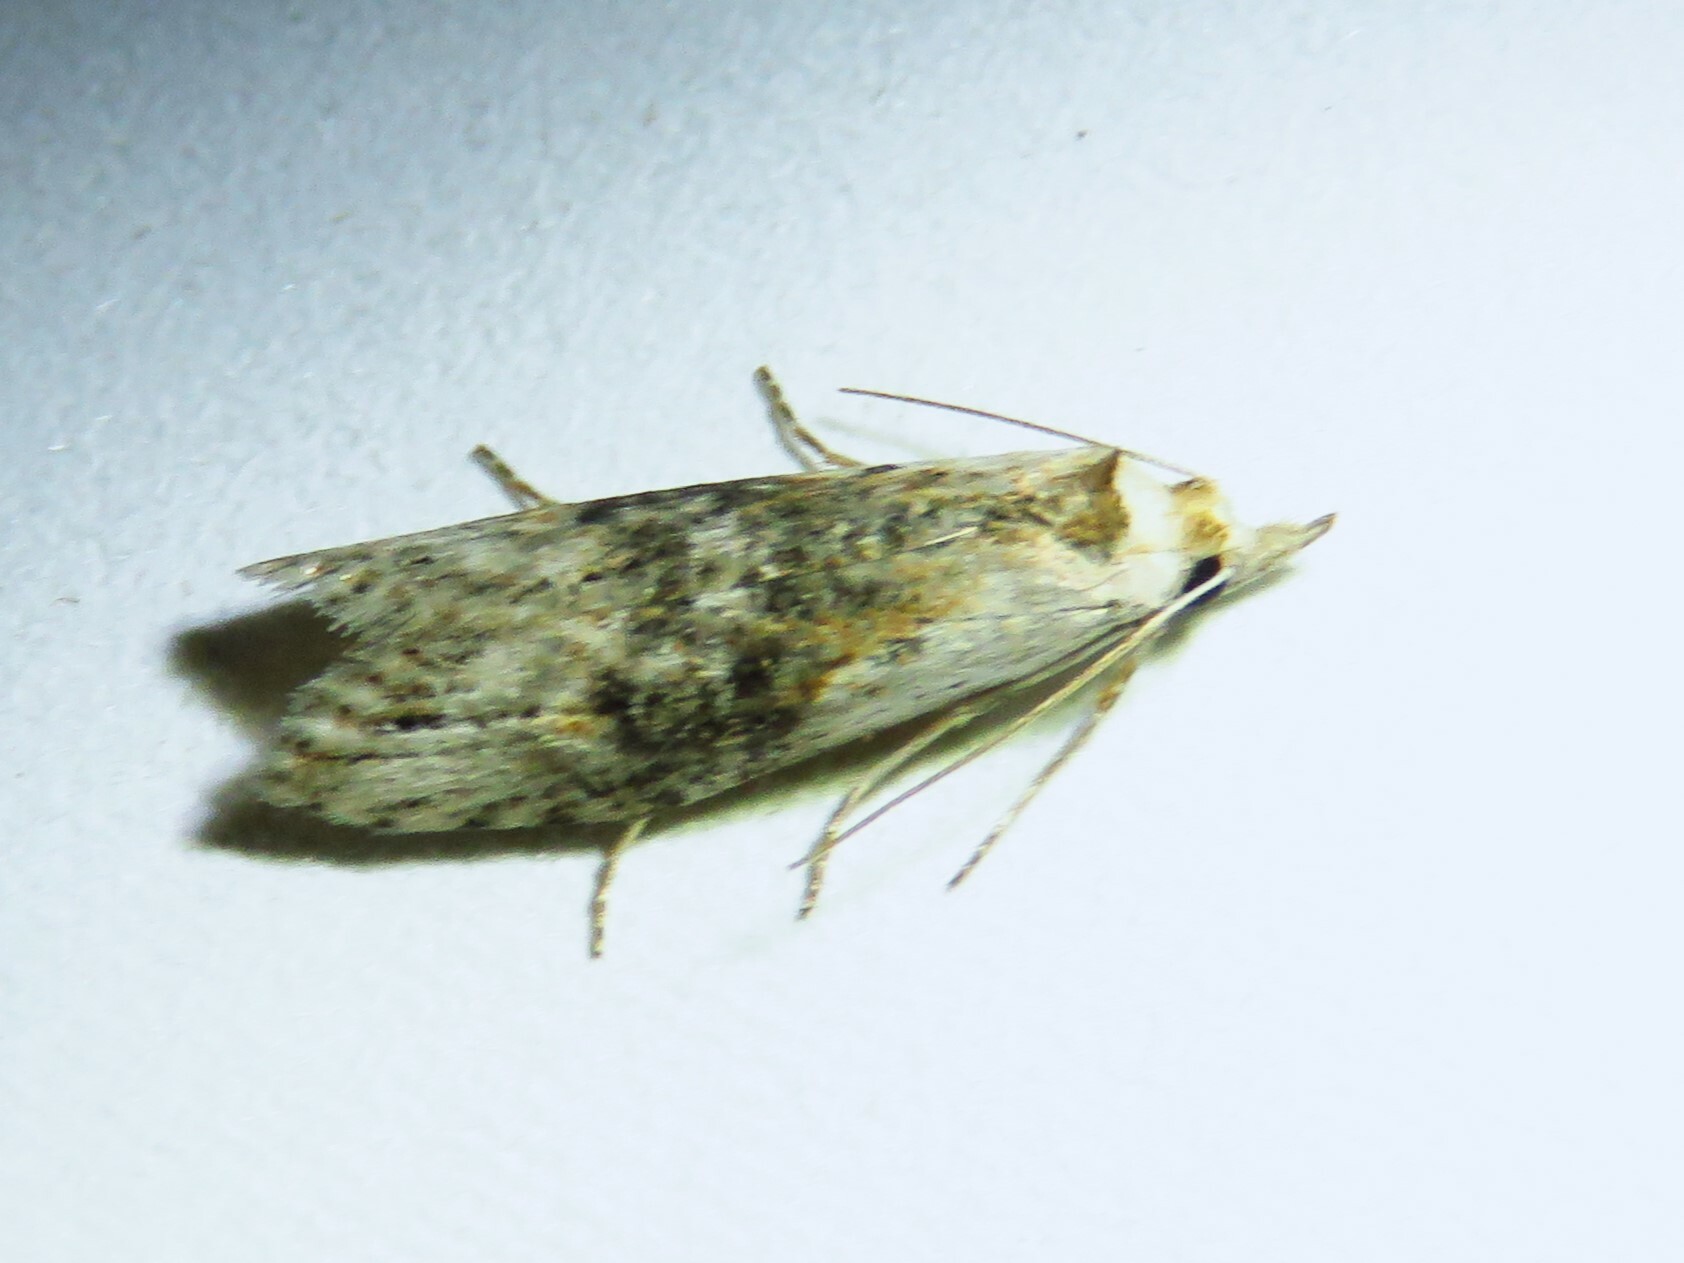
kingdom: Animalia
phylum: Arthropoda
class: Insecta
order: Lepidoptera
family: Copromorphidae
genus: Ellabella
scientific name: Ellabella editha
